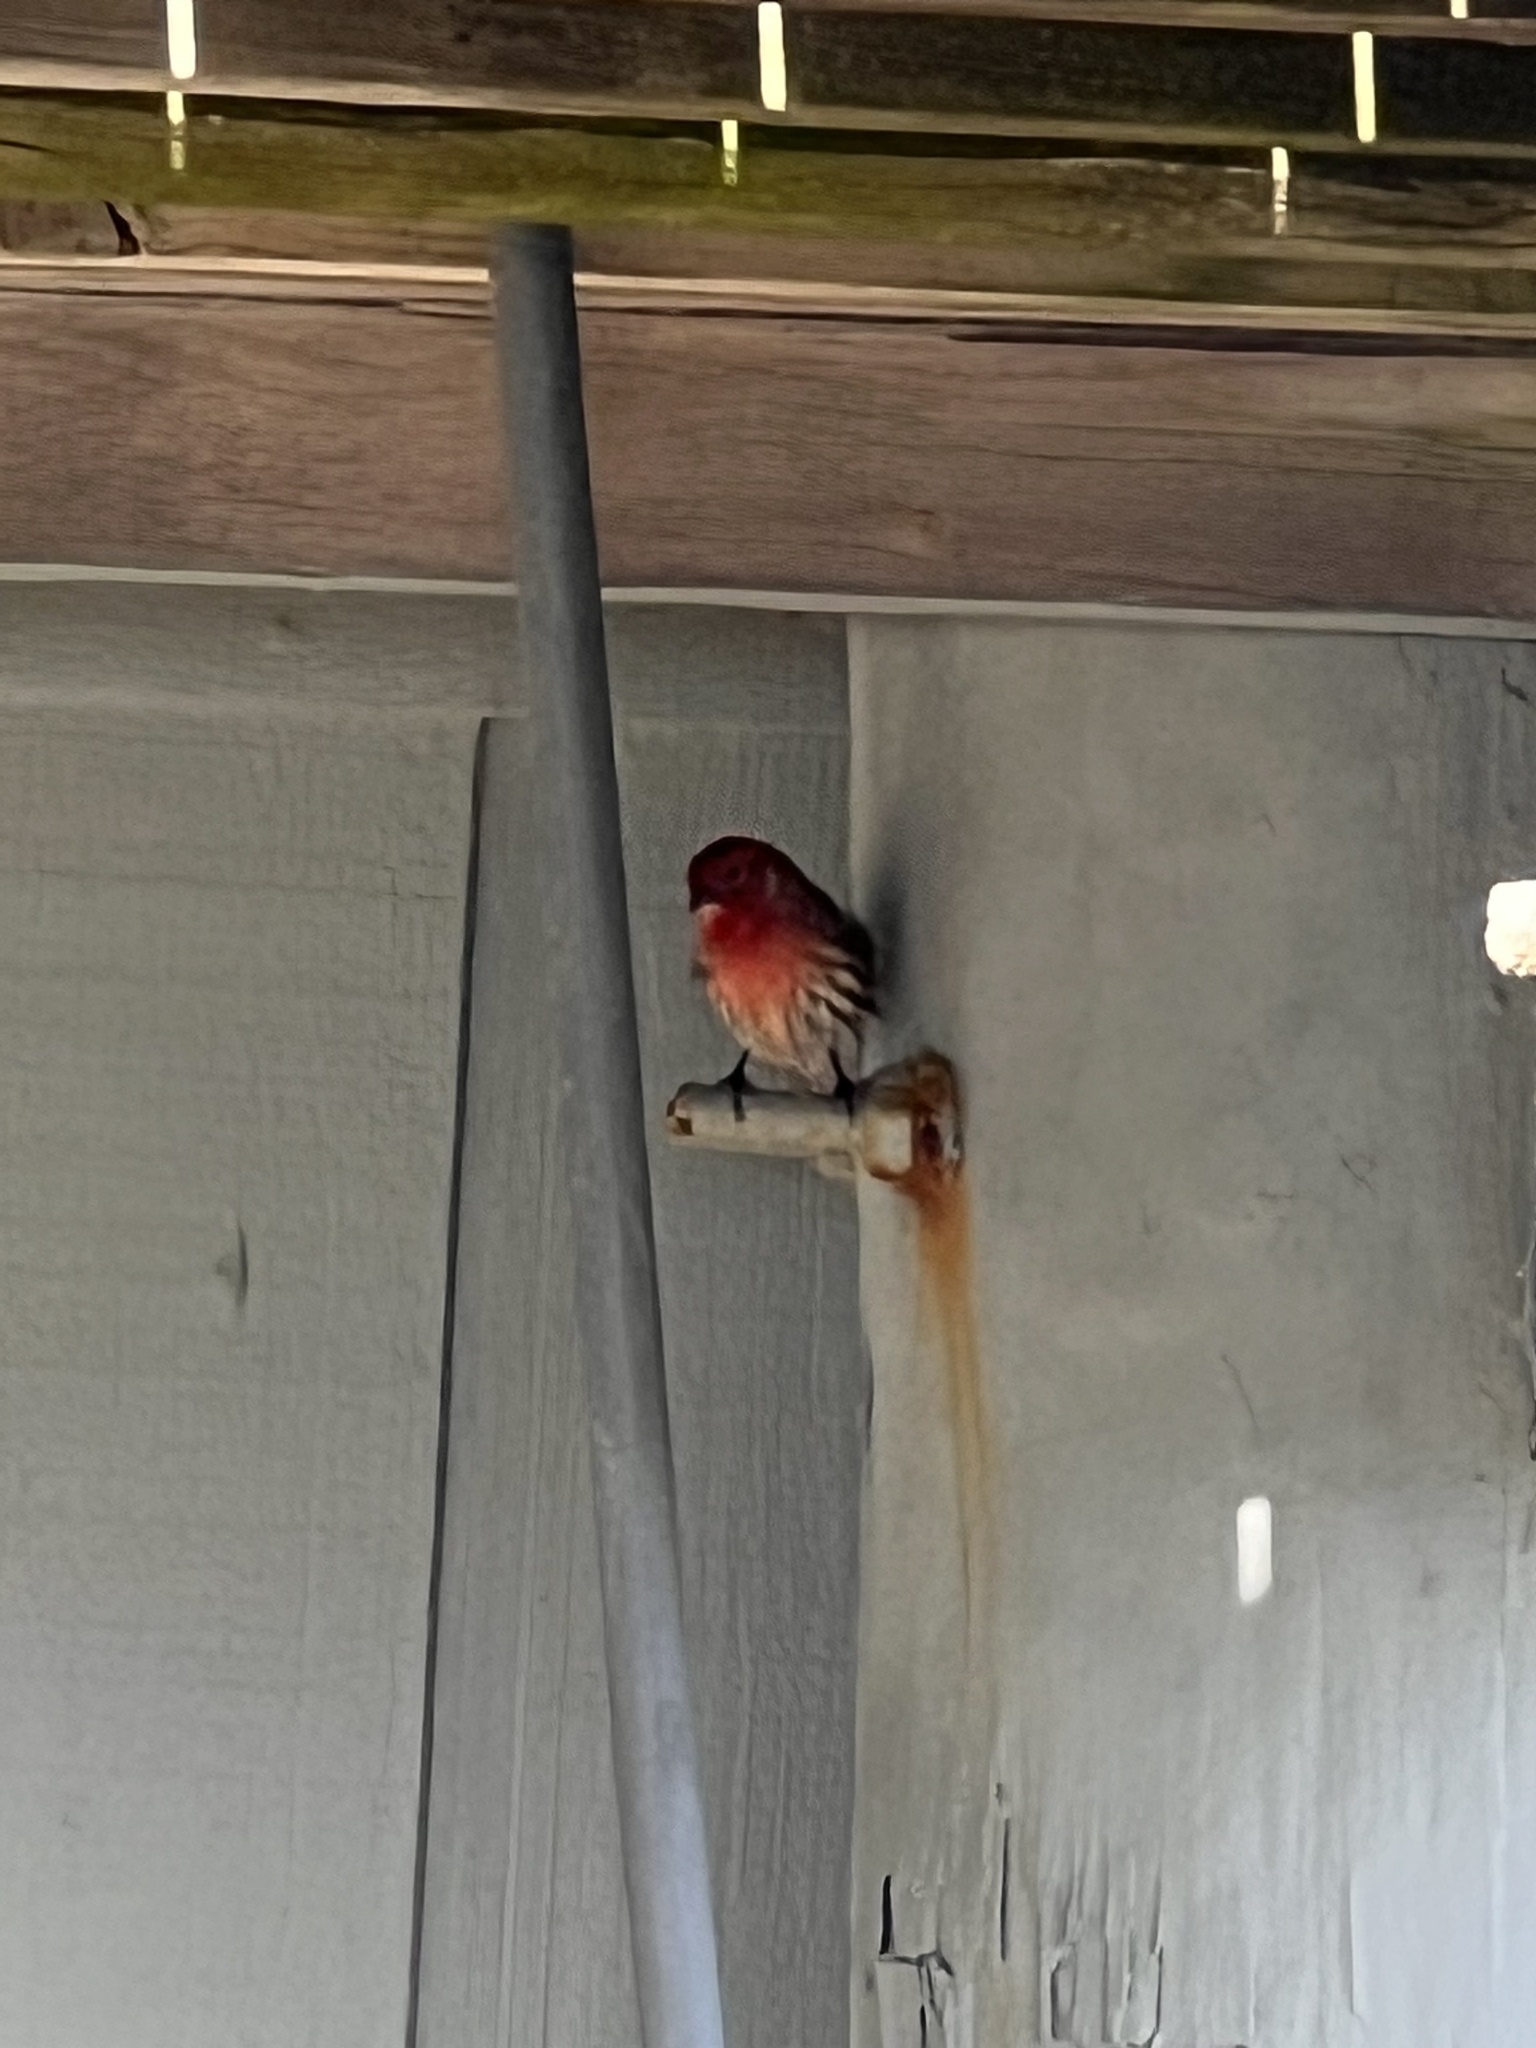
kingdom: Animalia
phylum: Chordata
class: Aves
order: Passeriformes
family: Fringillidae
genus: Haemorhous
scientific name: Haemorhous mexicanus
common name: House finch
